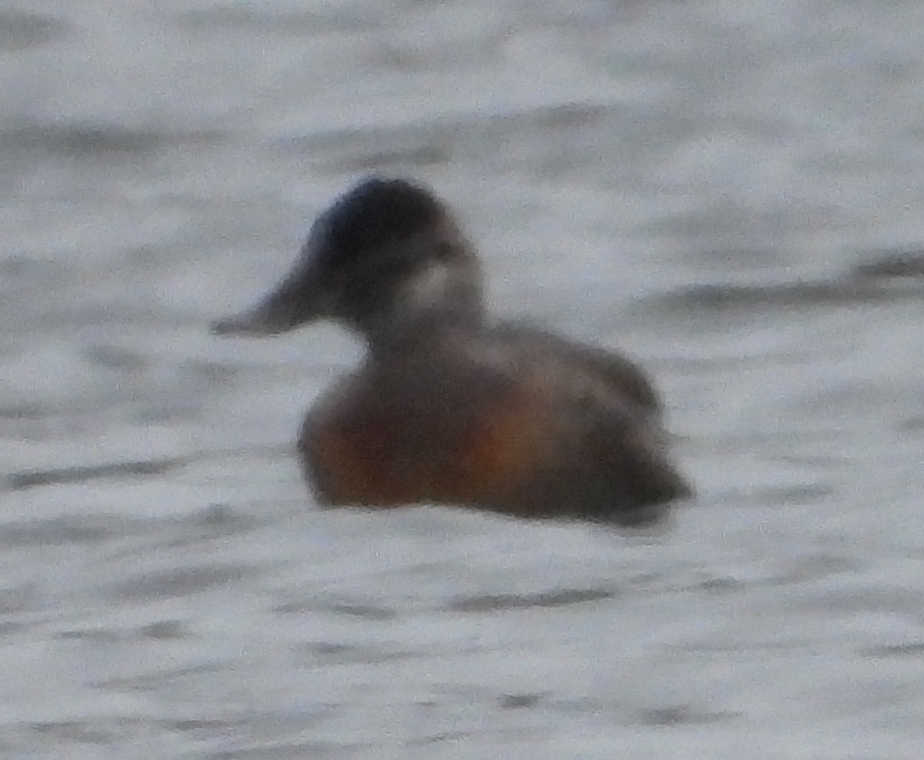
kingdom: Animalia
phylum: Chordata
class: Aves
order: Anseriformes
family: Anatidae
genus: Oxyura
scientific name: Oxyura jamaicensis
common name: Ruddy duck
